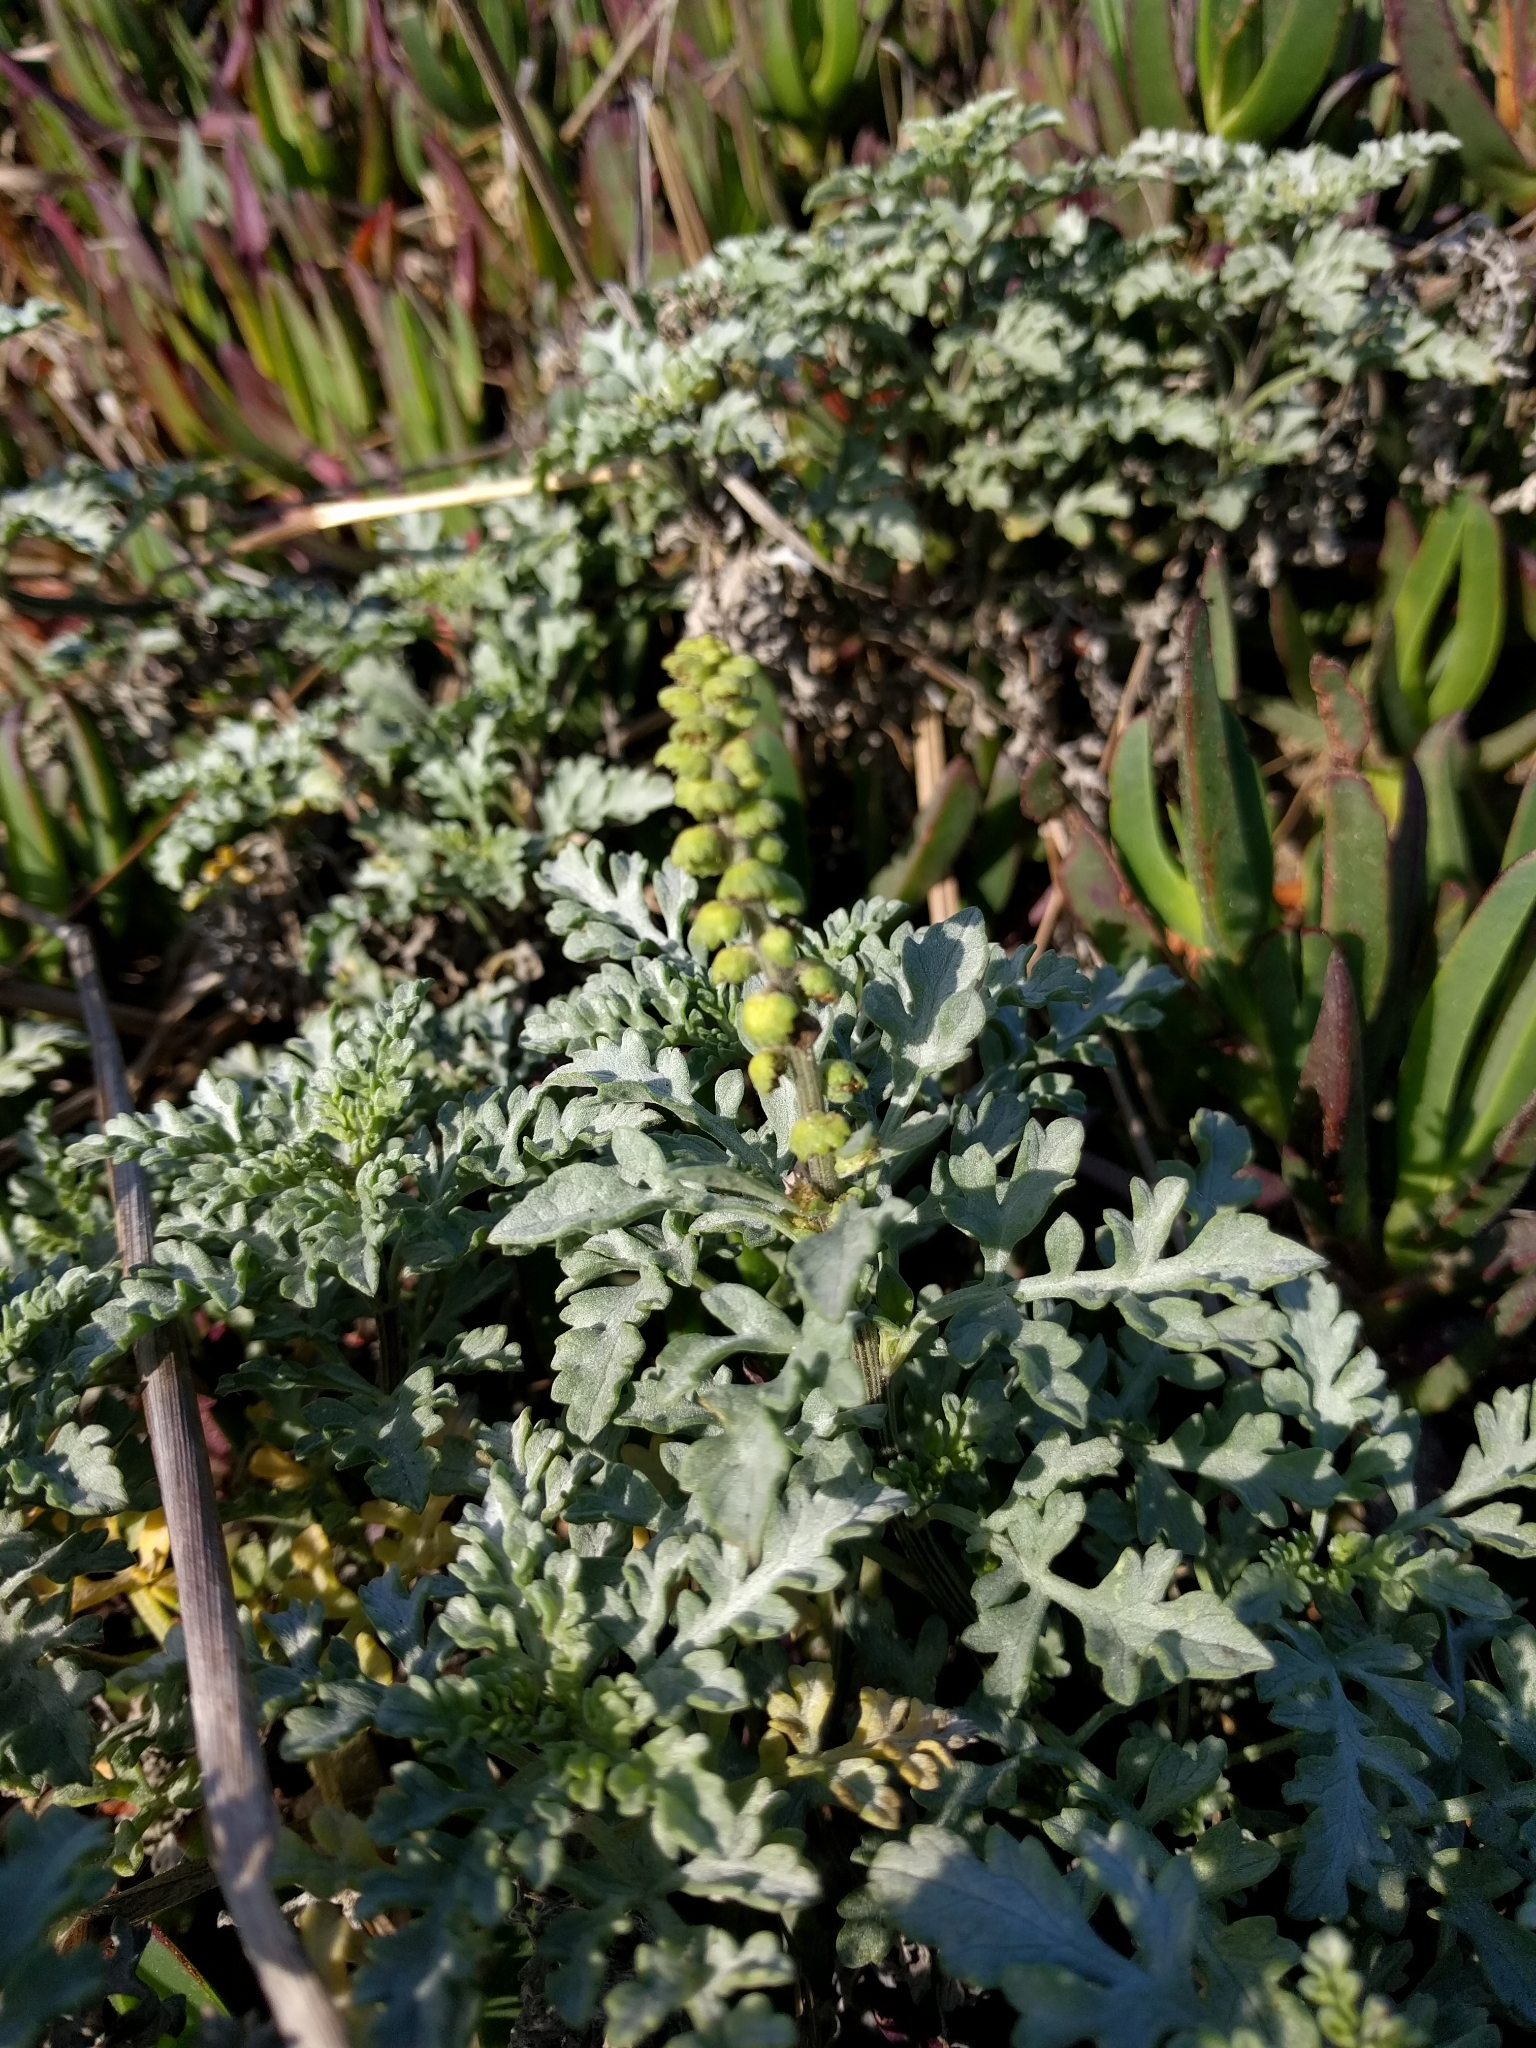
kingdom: Plantae
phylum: Tracheophyta
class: Magnoliopsida
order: Asterales
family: Asteraceae
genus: Ambrosia
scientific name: Ambrosia chamissonis
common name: Beachbur
